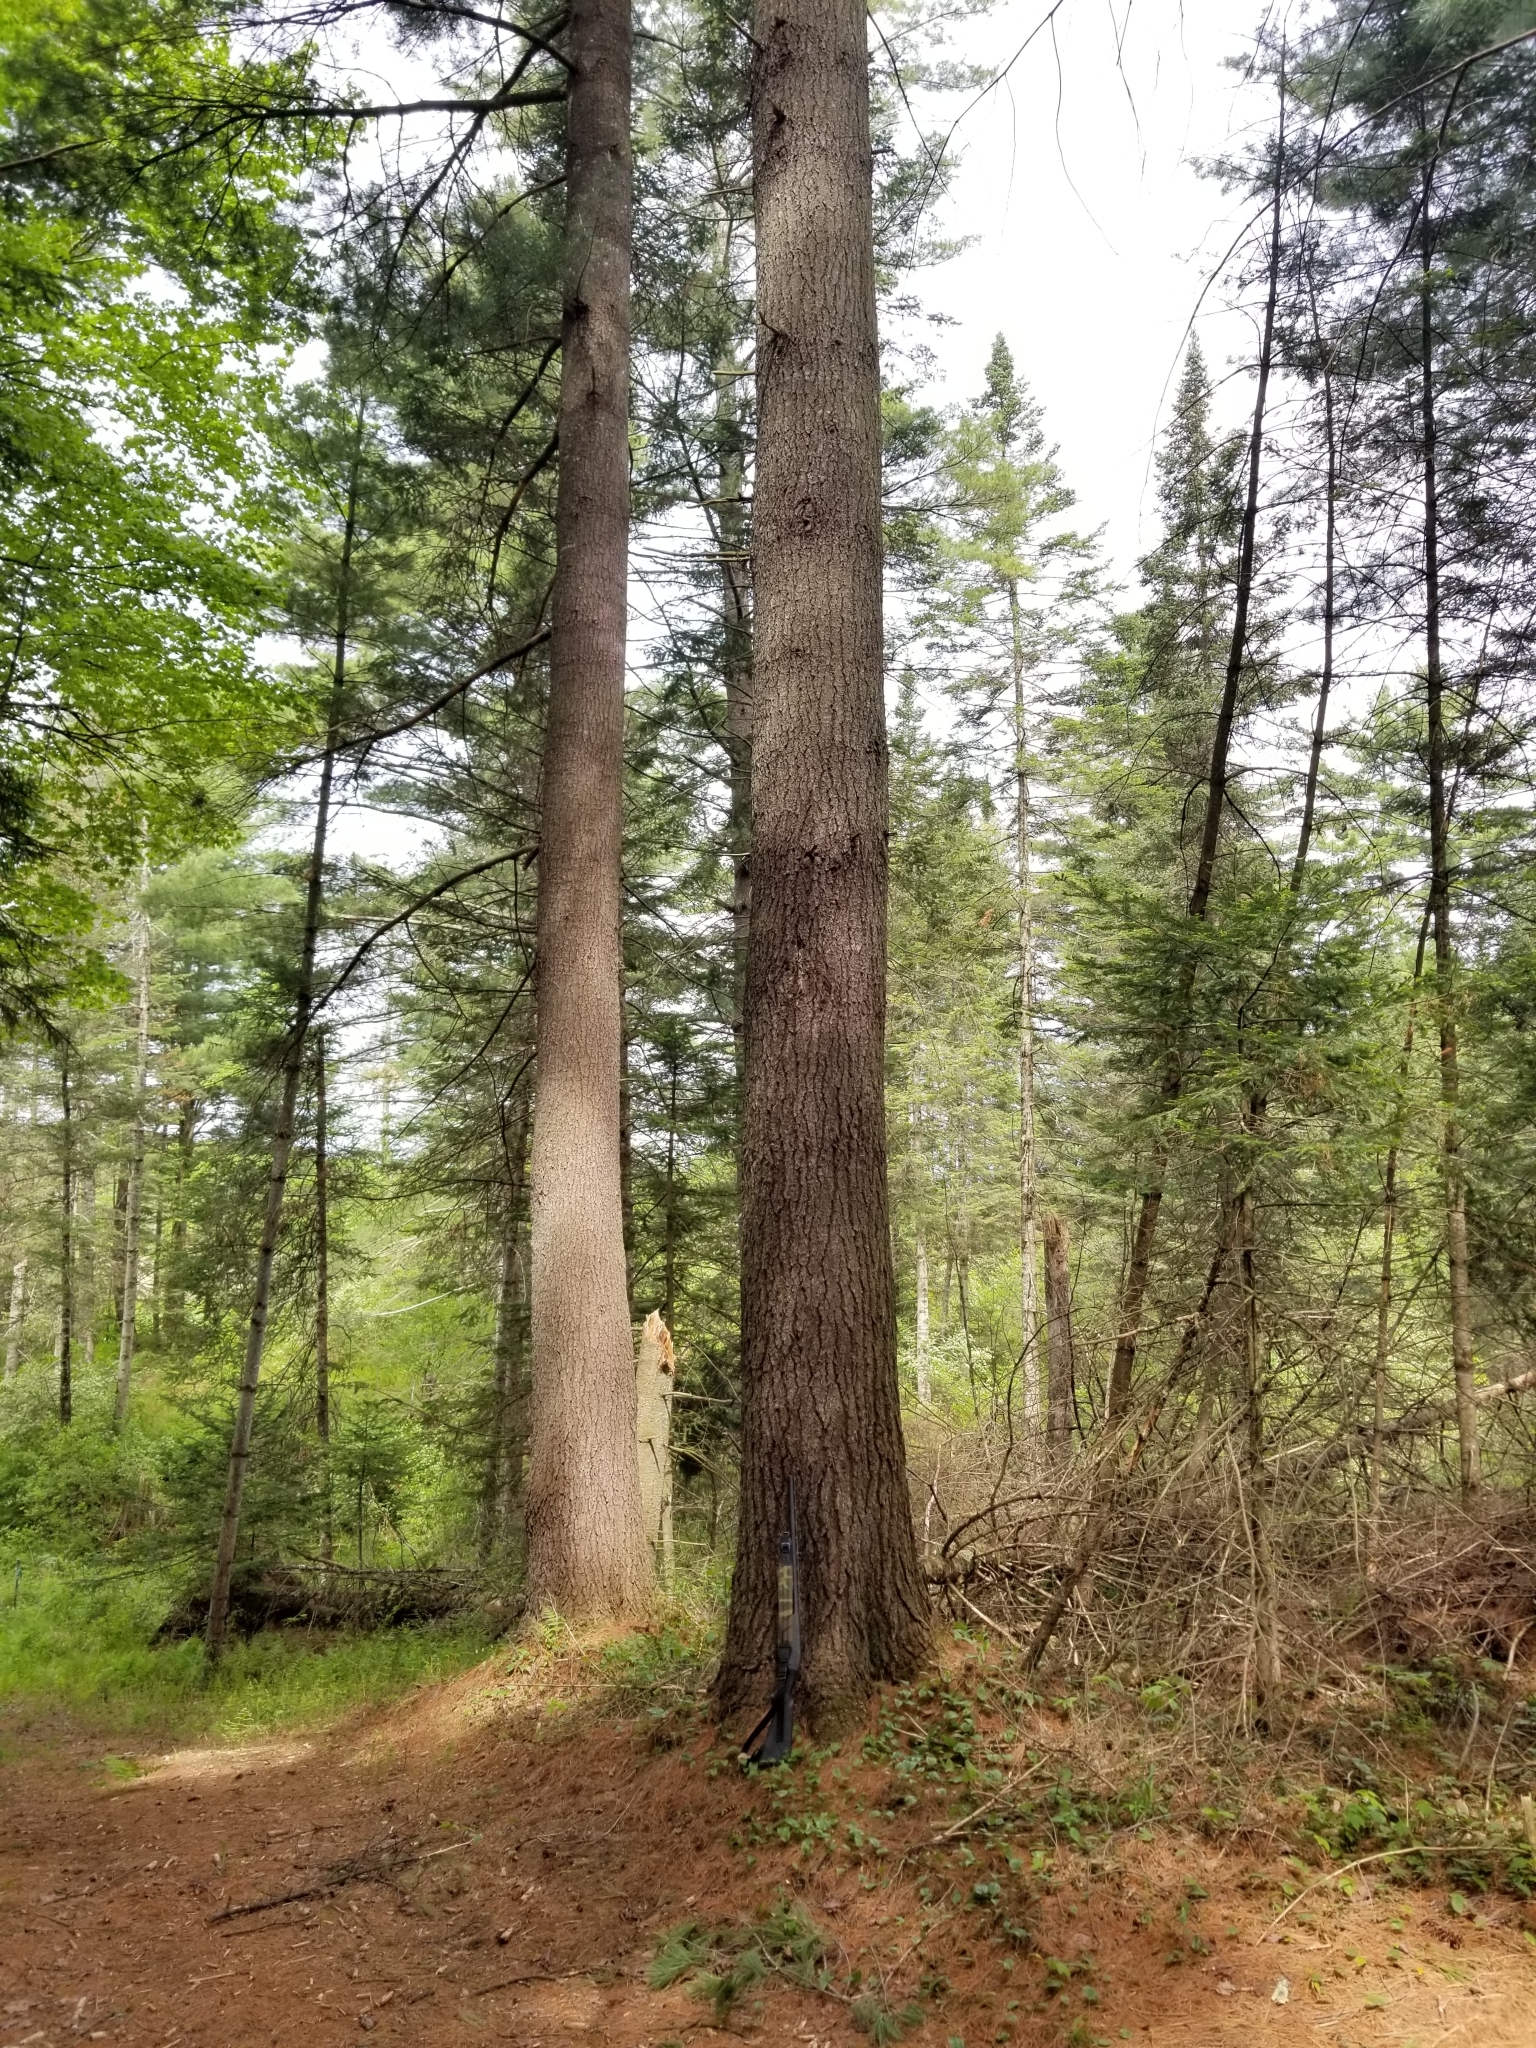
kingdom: Plantae
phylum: Tracheophyta
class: Pinopsida
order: Pinales
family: Pinaceae
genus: Pinus
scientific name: Pinus strobus
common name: Weymouth pine
